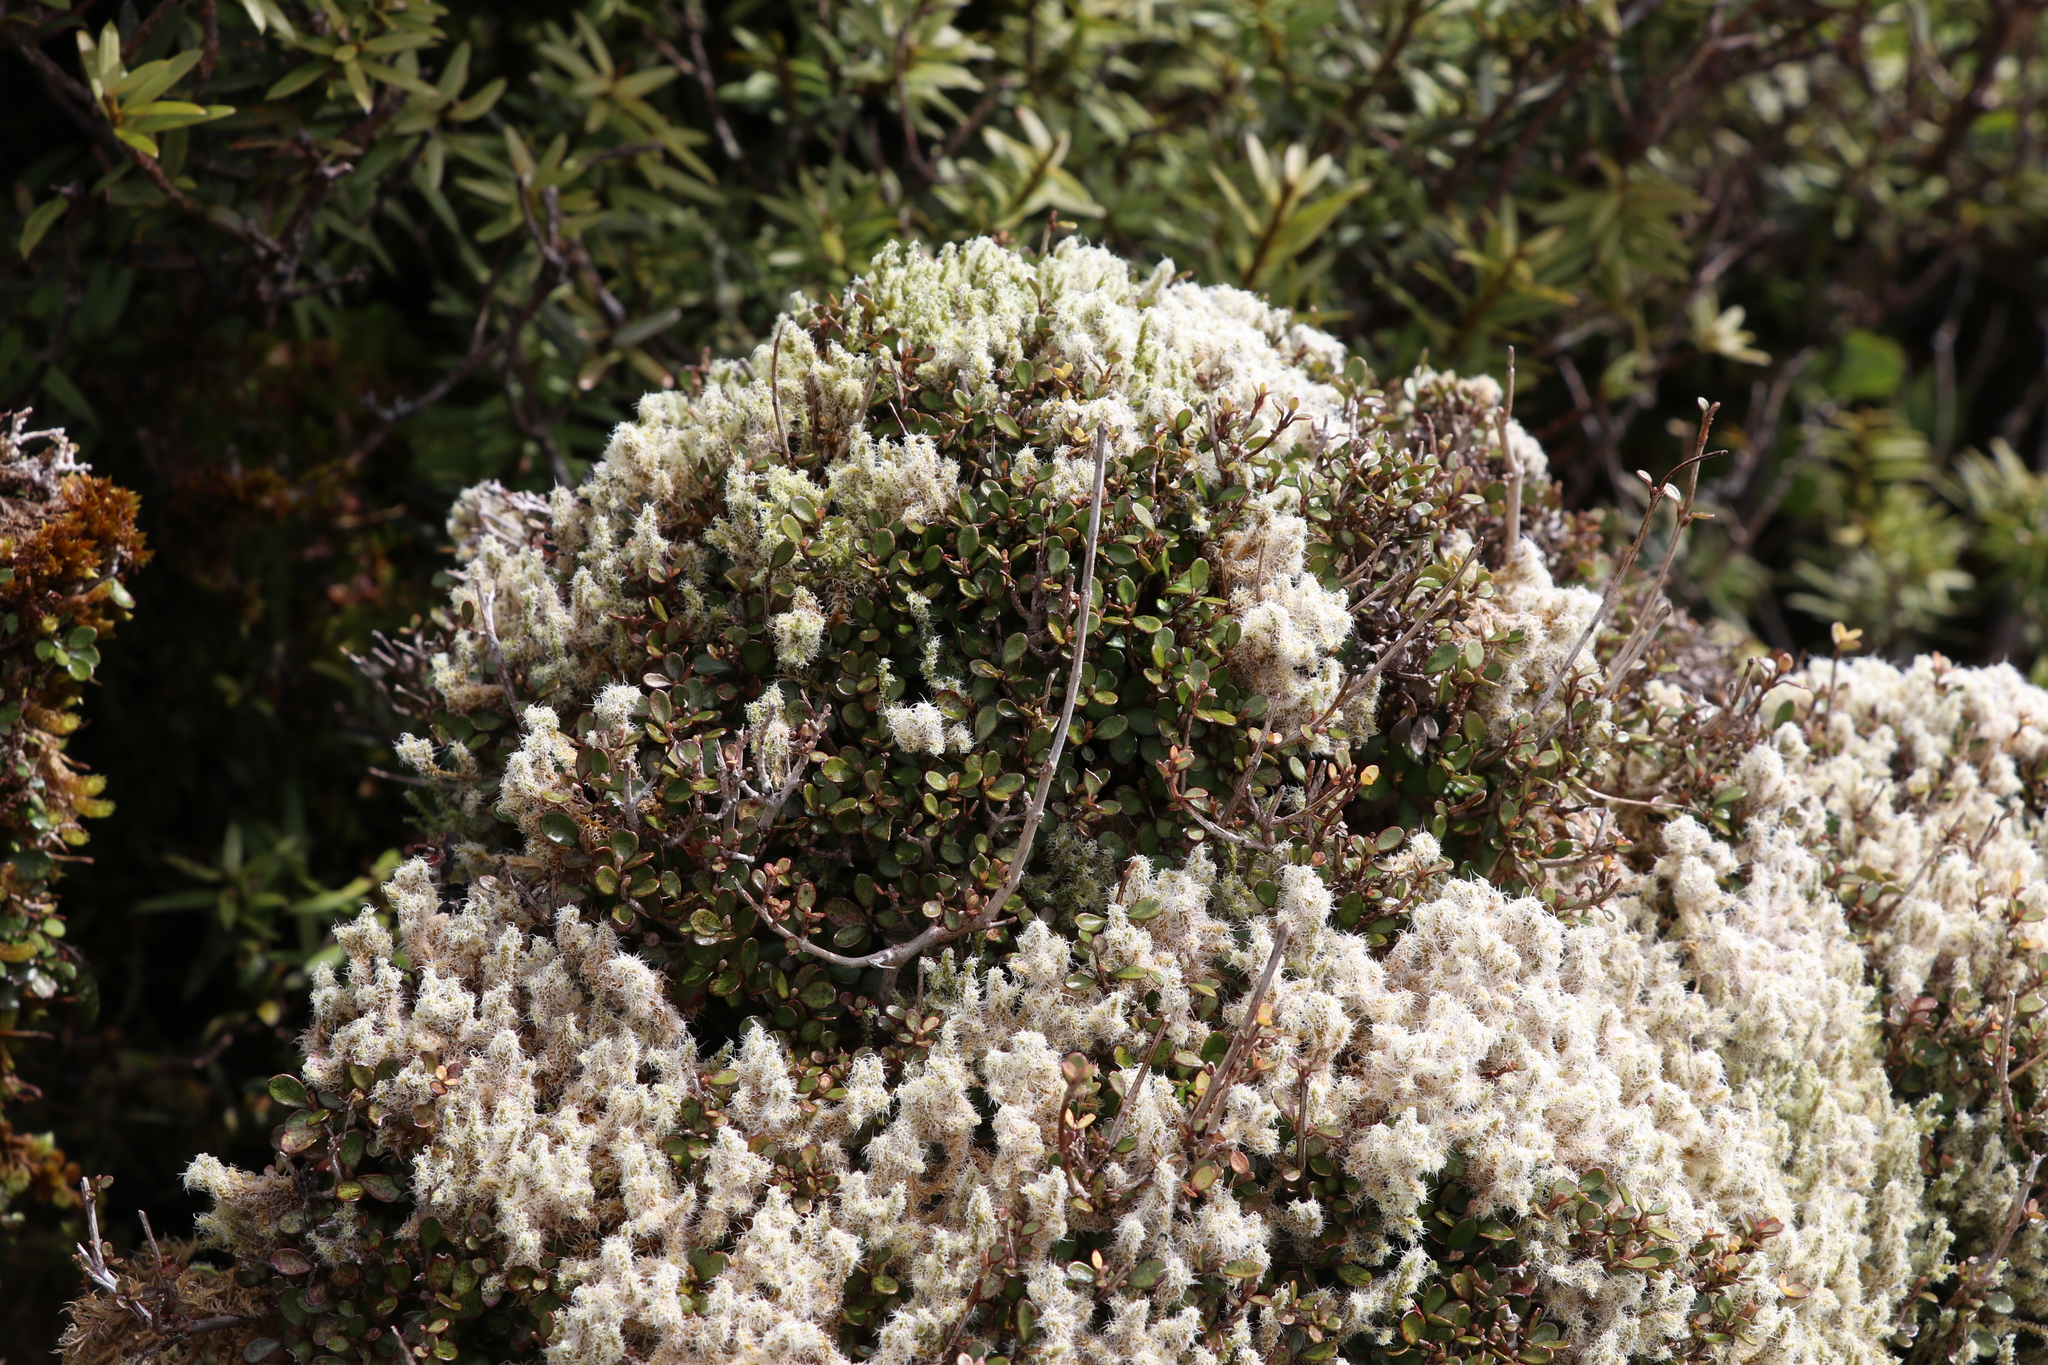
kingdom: Plantae
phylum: Tracheophyta
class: Magnoliopsida
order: Myrtales
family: Myrtaceae
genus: Neomyrtus
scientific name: Neomyrtus pedunculata
